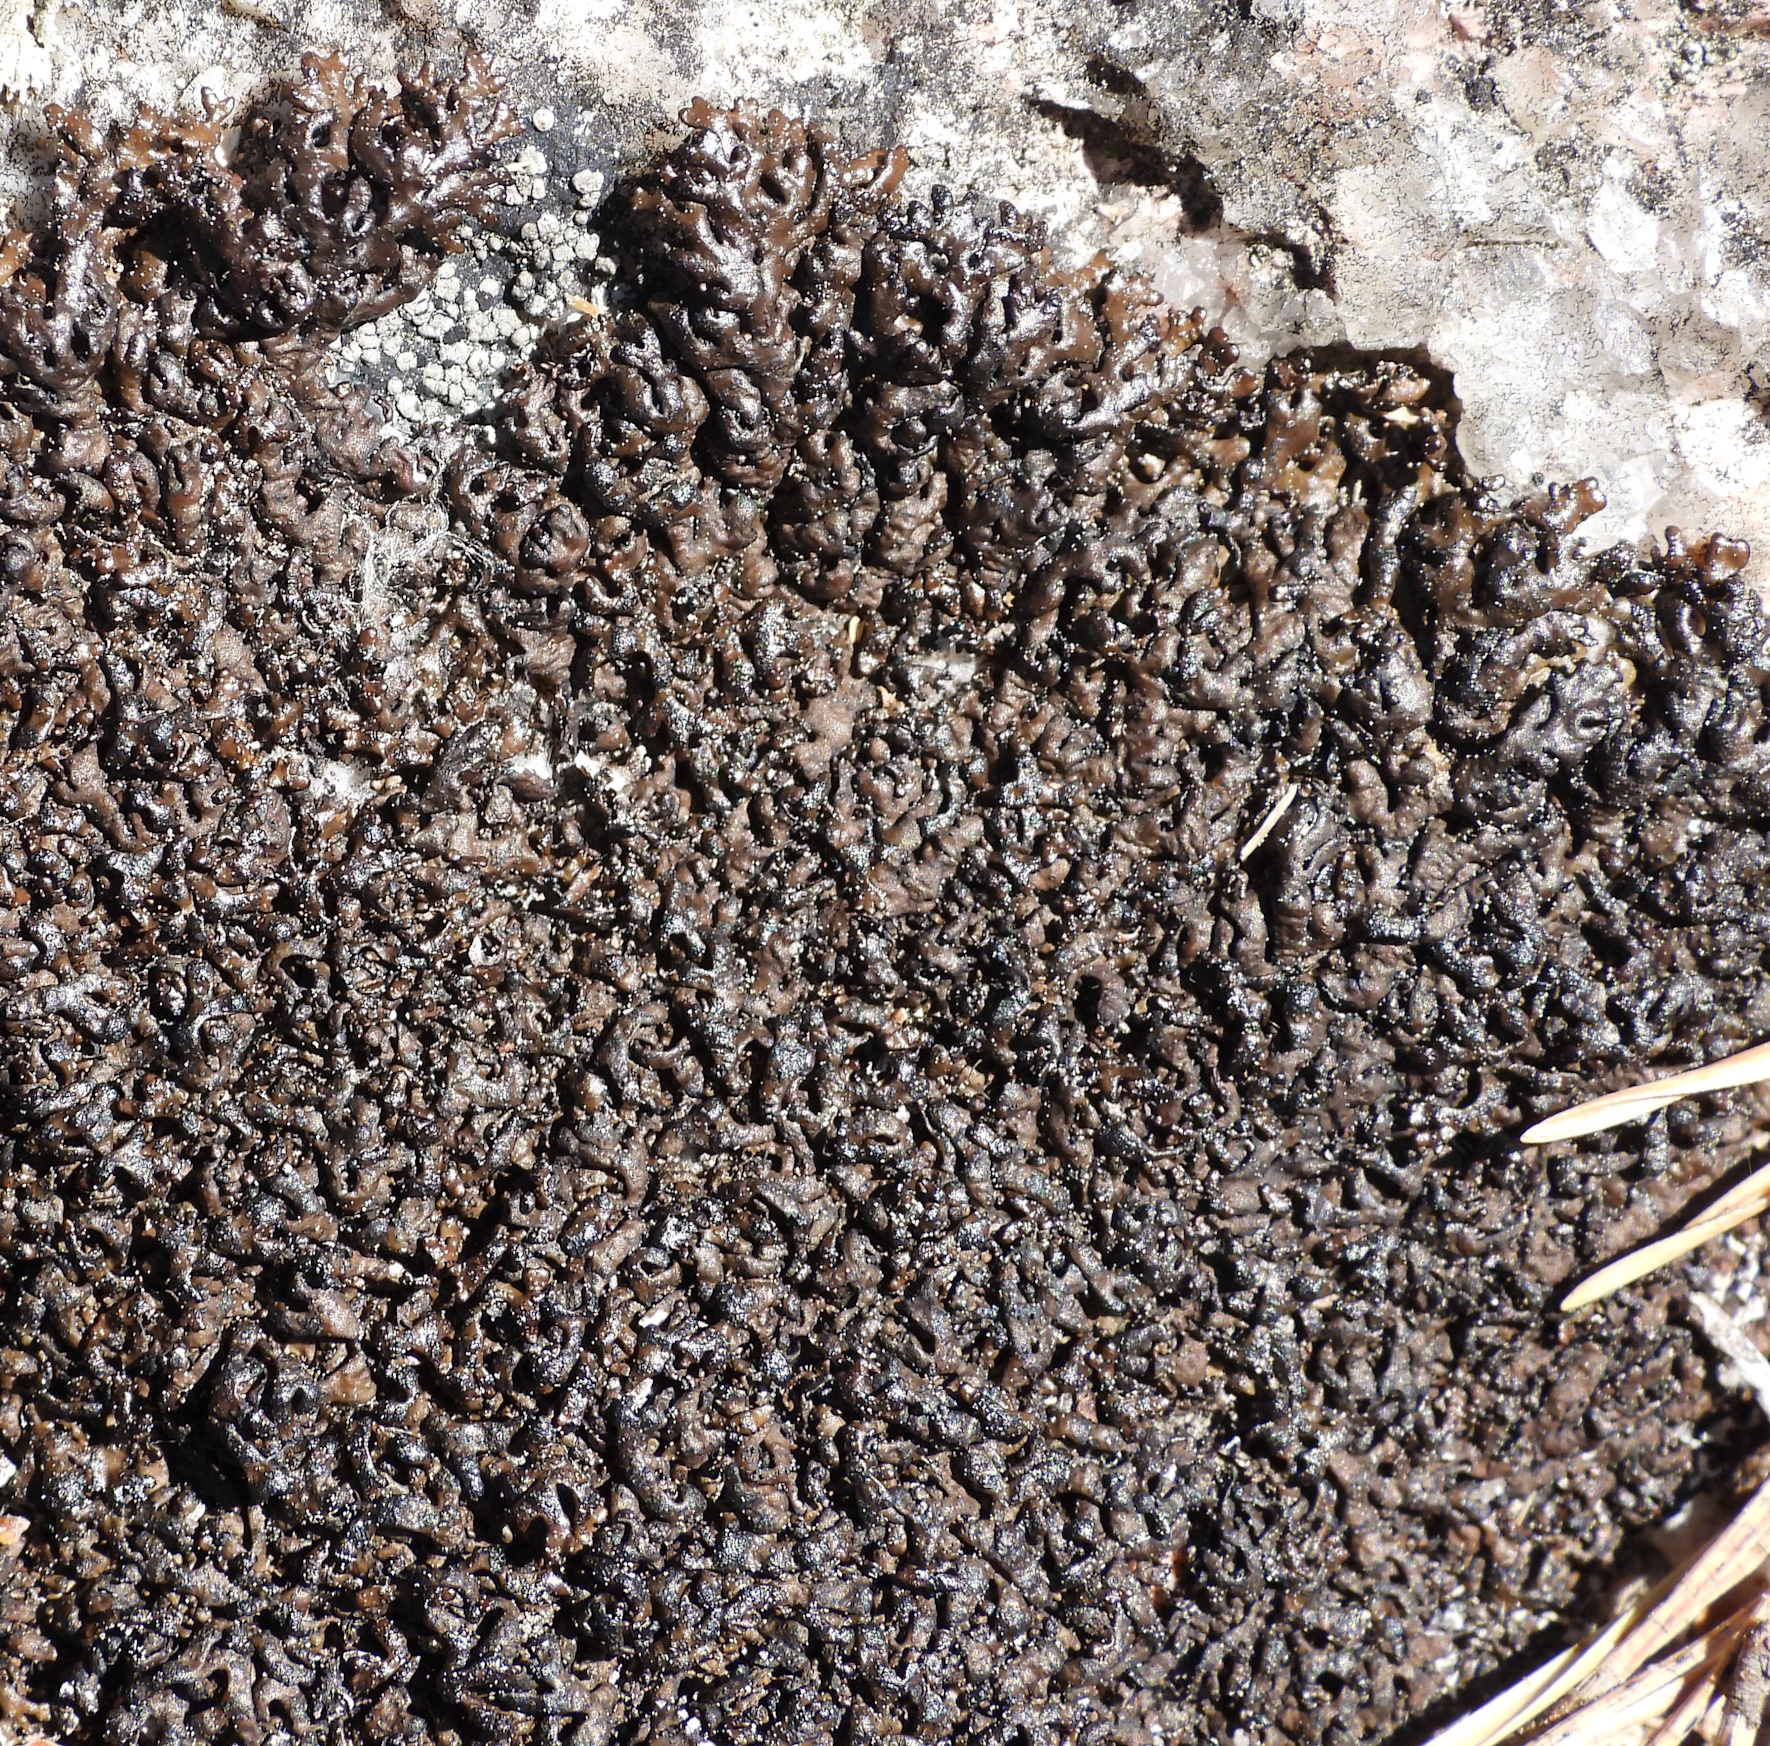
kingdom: Fungi
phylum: Ascomycota
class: Lecanoromycetes
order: Lecanorales
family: Parmeliaceae
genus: Melanelia
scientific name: Melanelia stygia
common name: Alpine camouflage lichen
